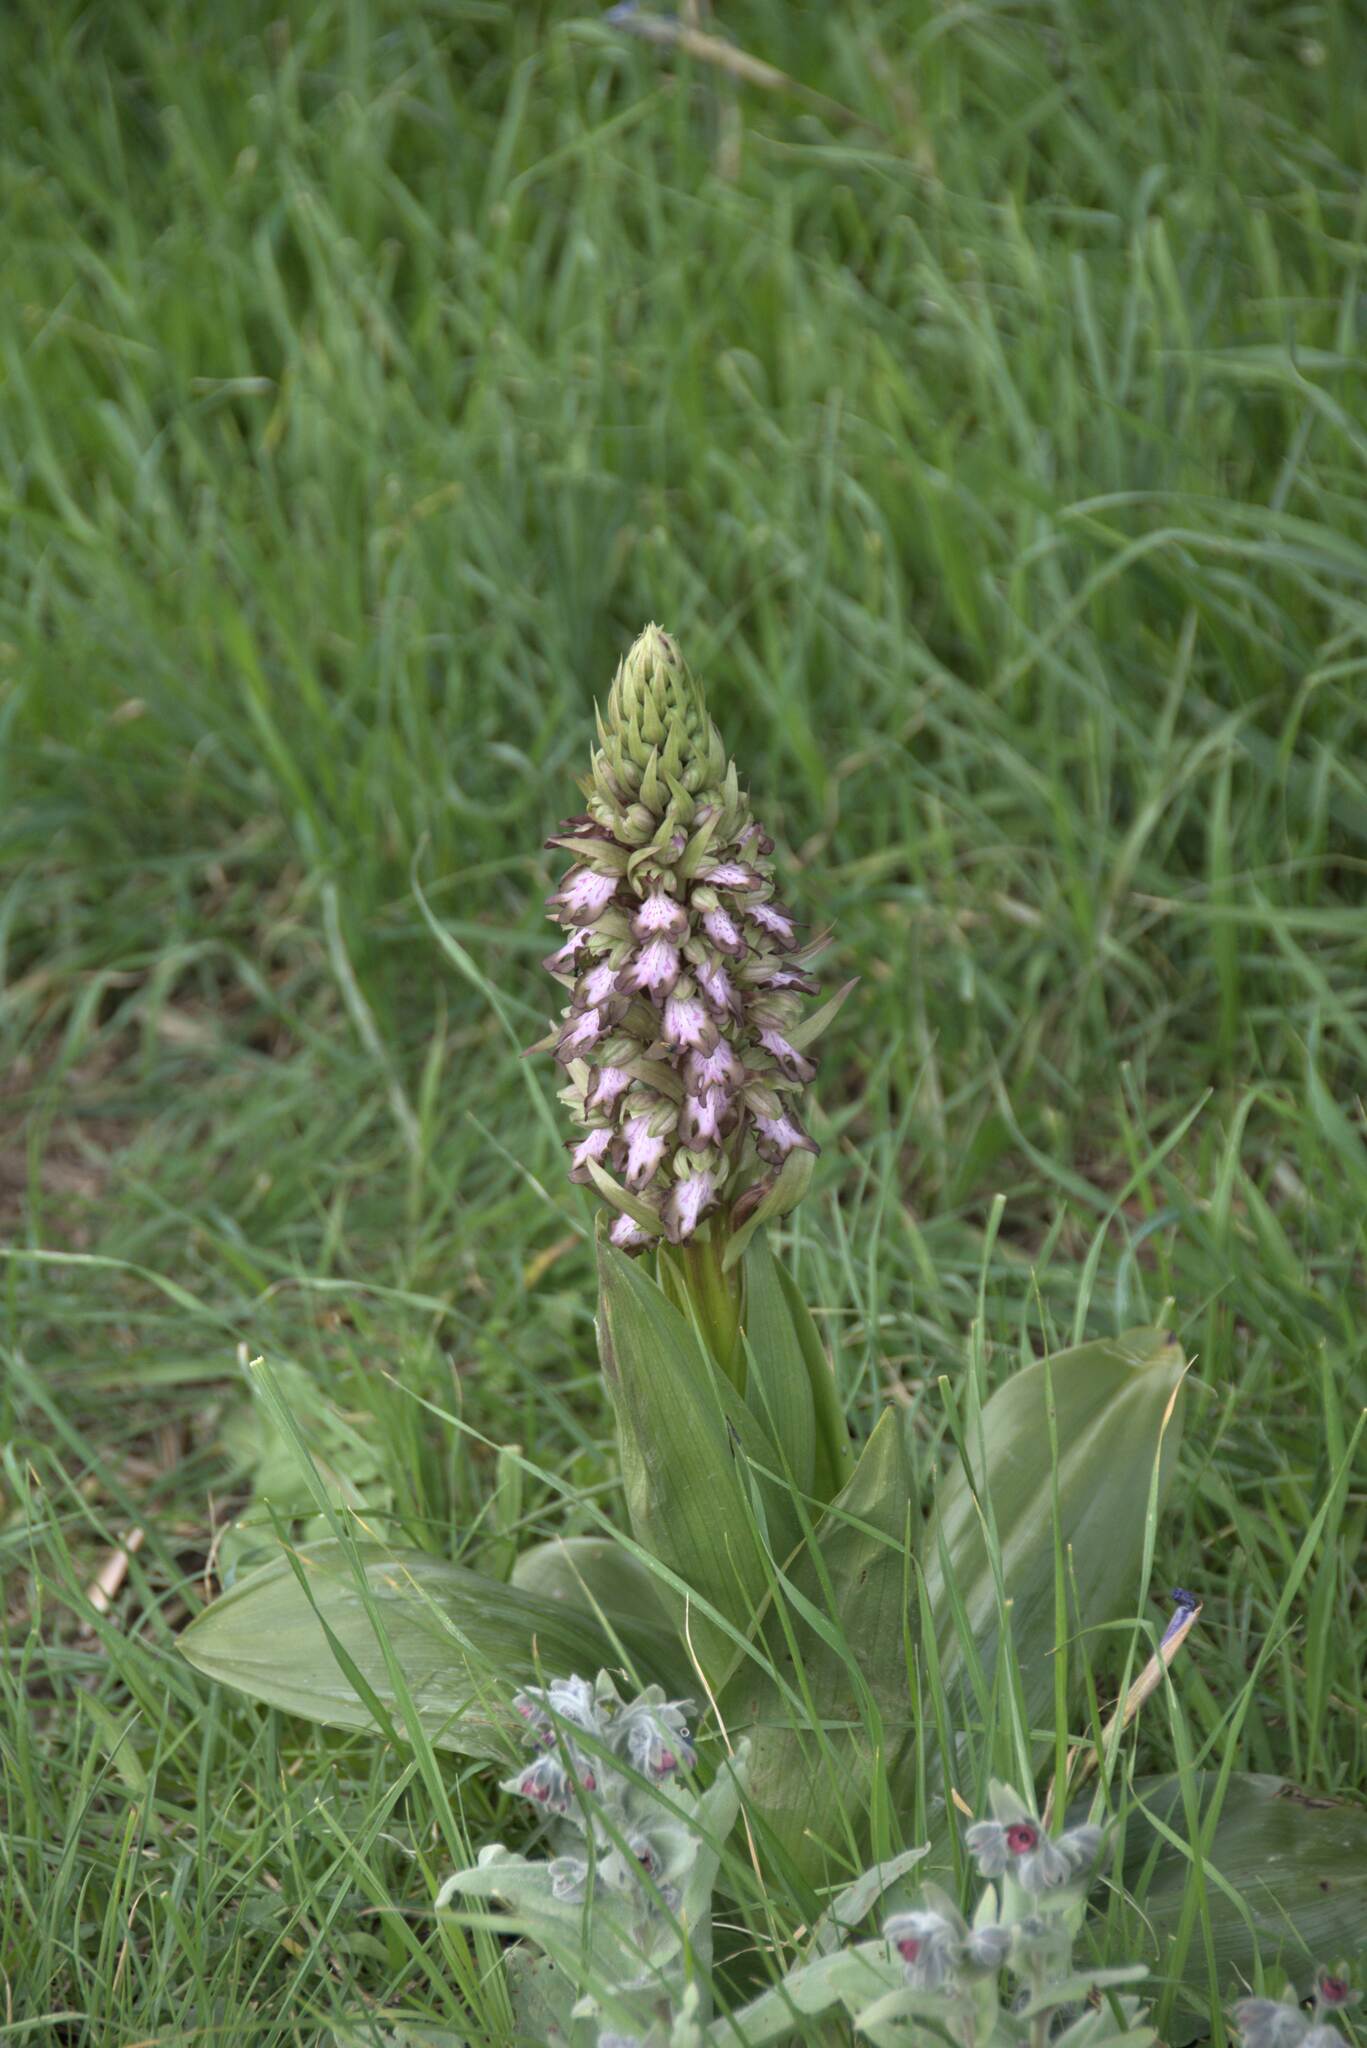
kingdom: Plantae
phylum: Tracheophyta
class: Liliopsida
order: Asparagales
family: Orchidaceae
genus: Himantoglossum
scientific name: Himantoglossum robertianum
